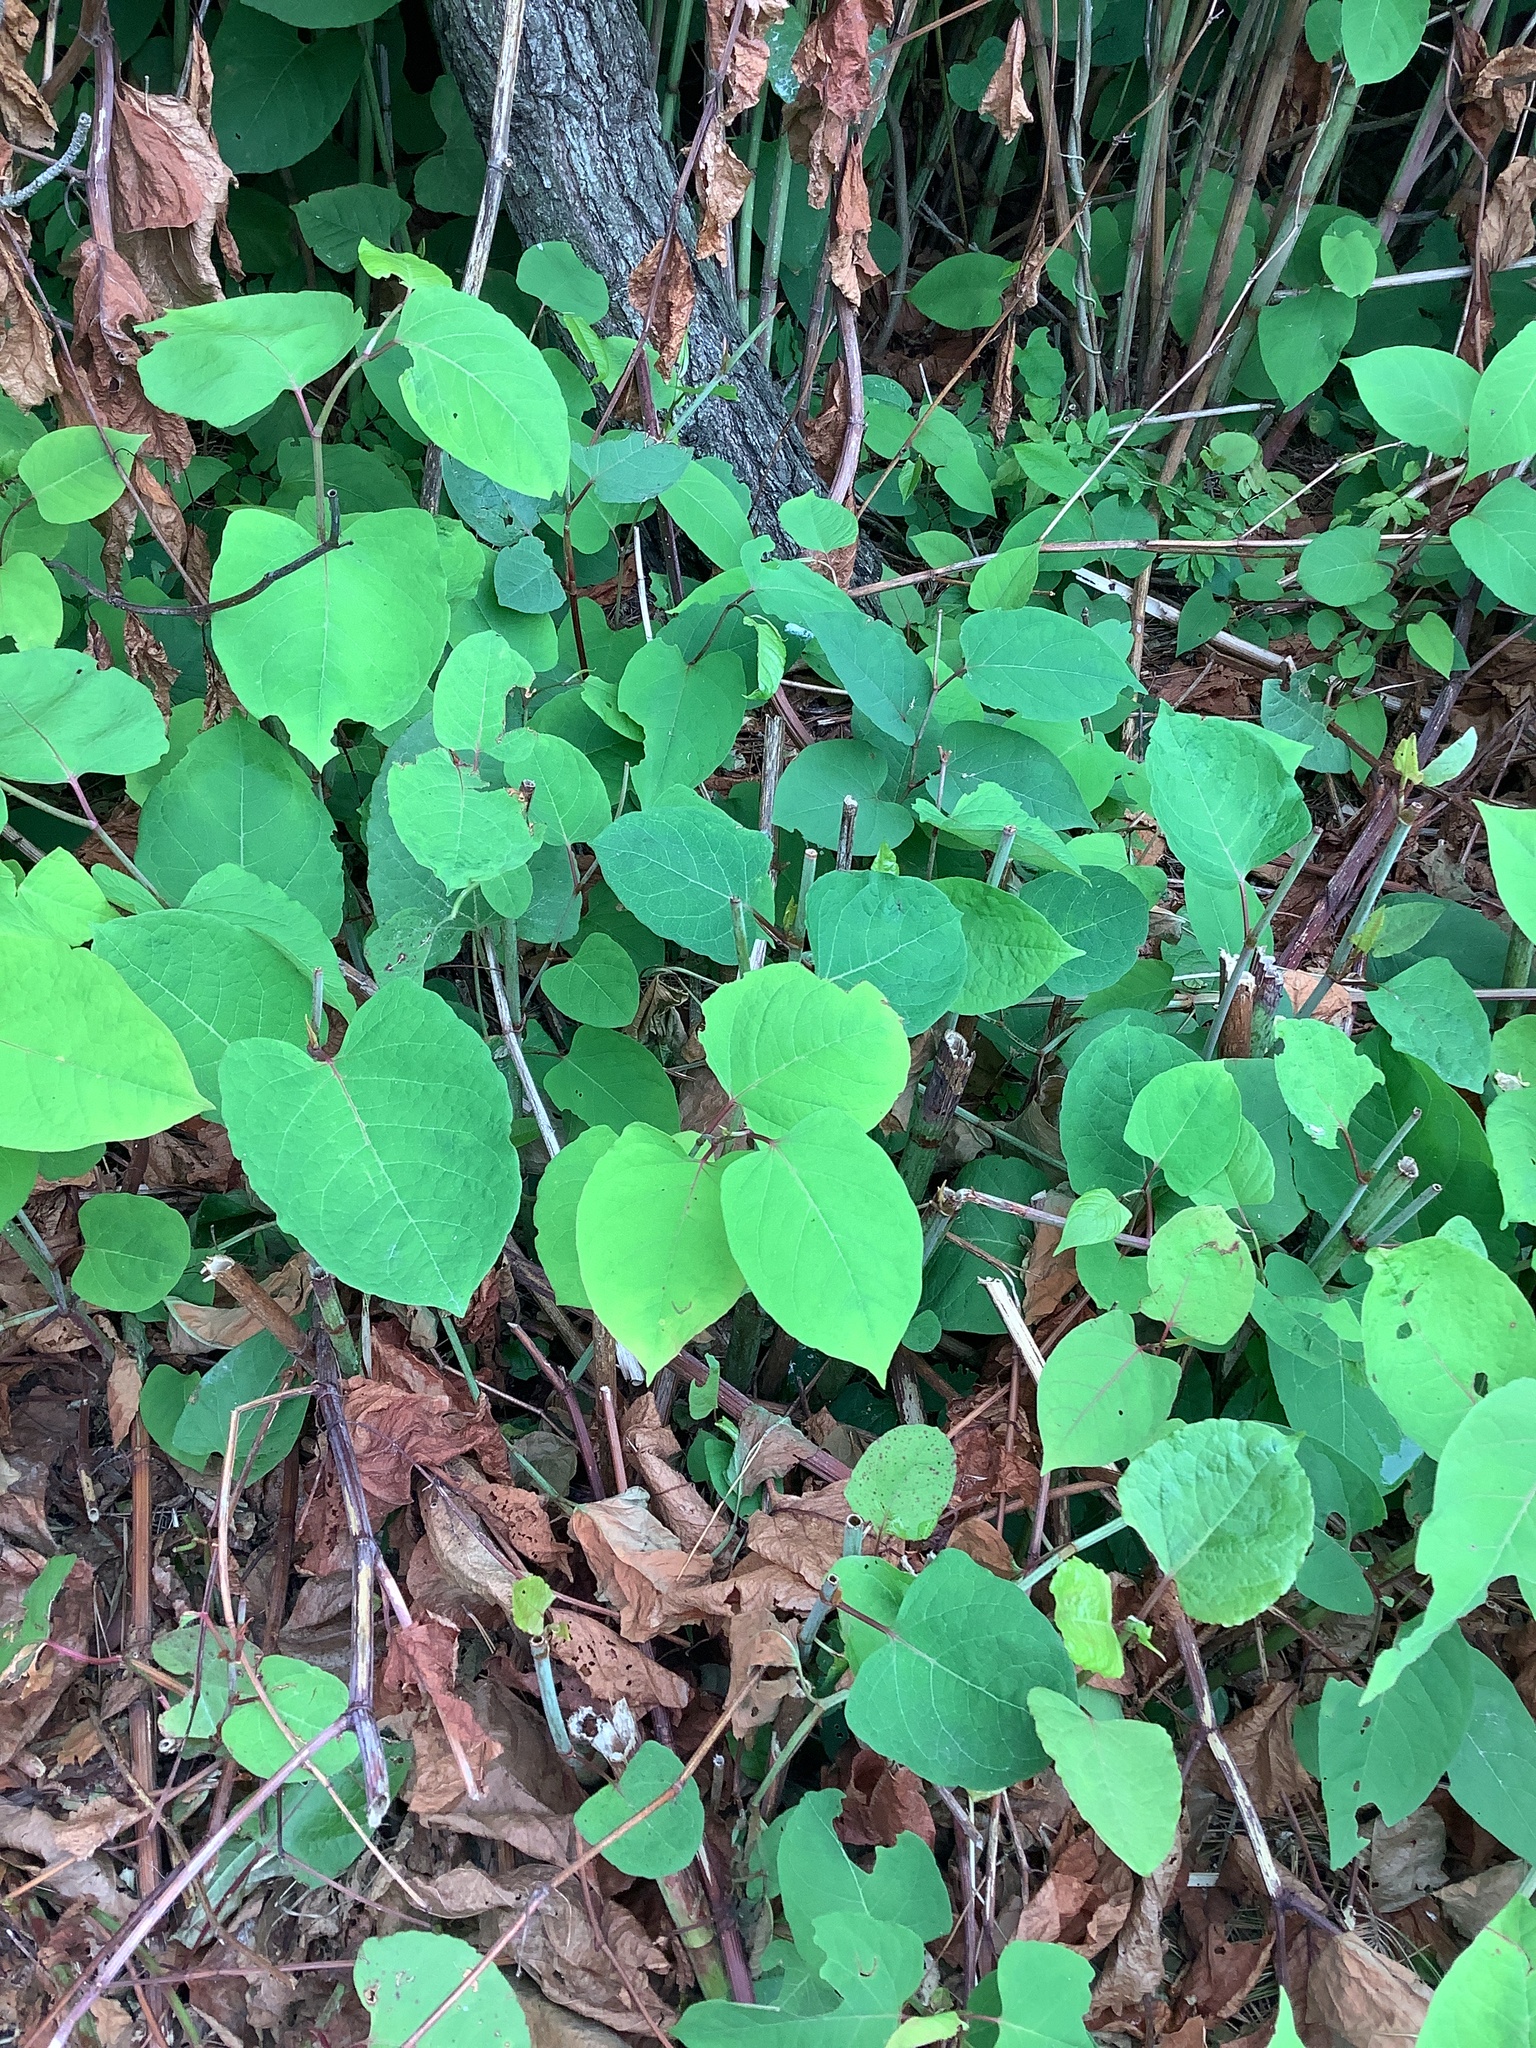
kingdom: Plantae
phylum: Tracheophyta
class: Magnoliopsida
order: Caryophyllales
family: Polygonaceae
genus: Reynoutria
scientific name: Reynoutria
